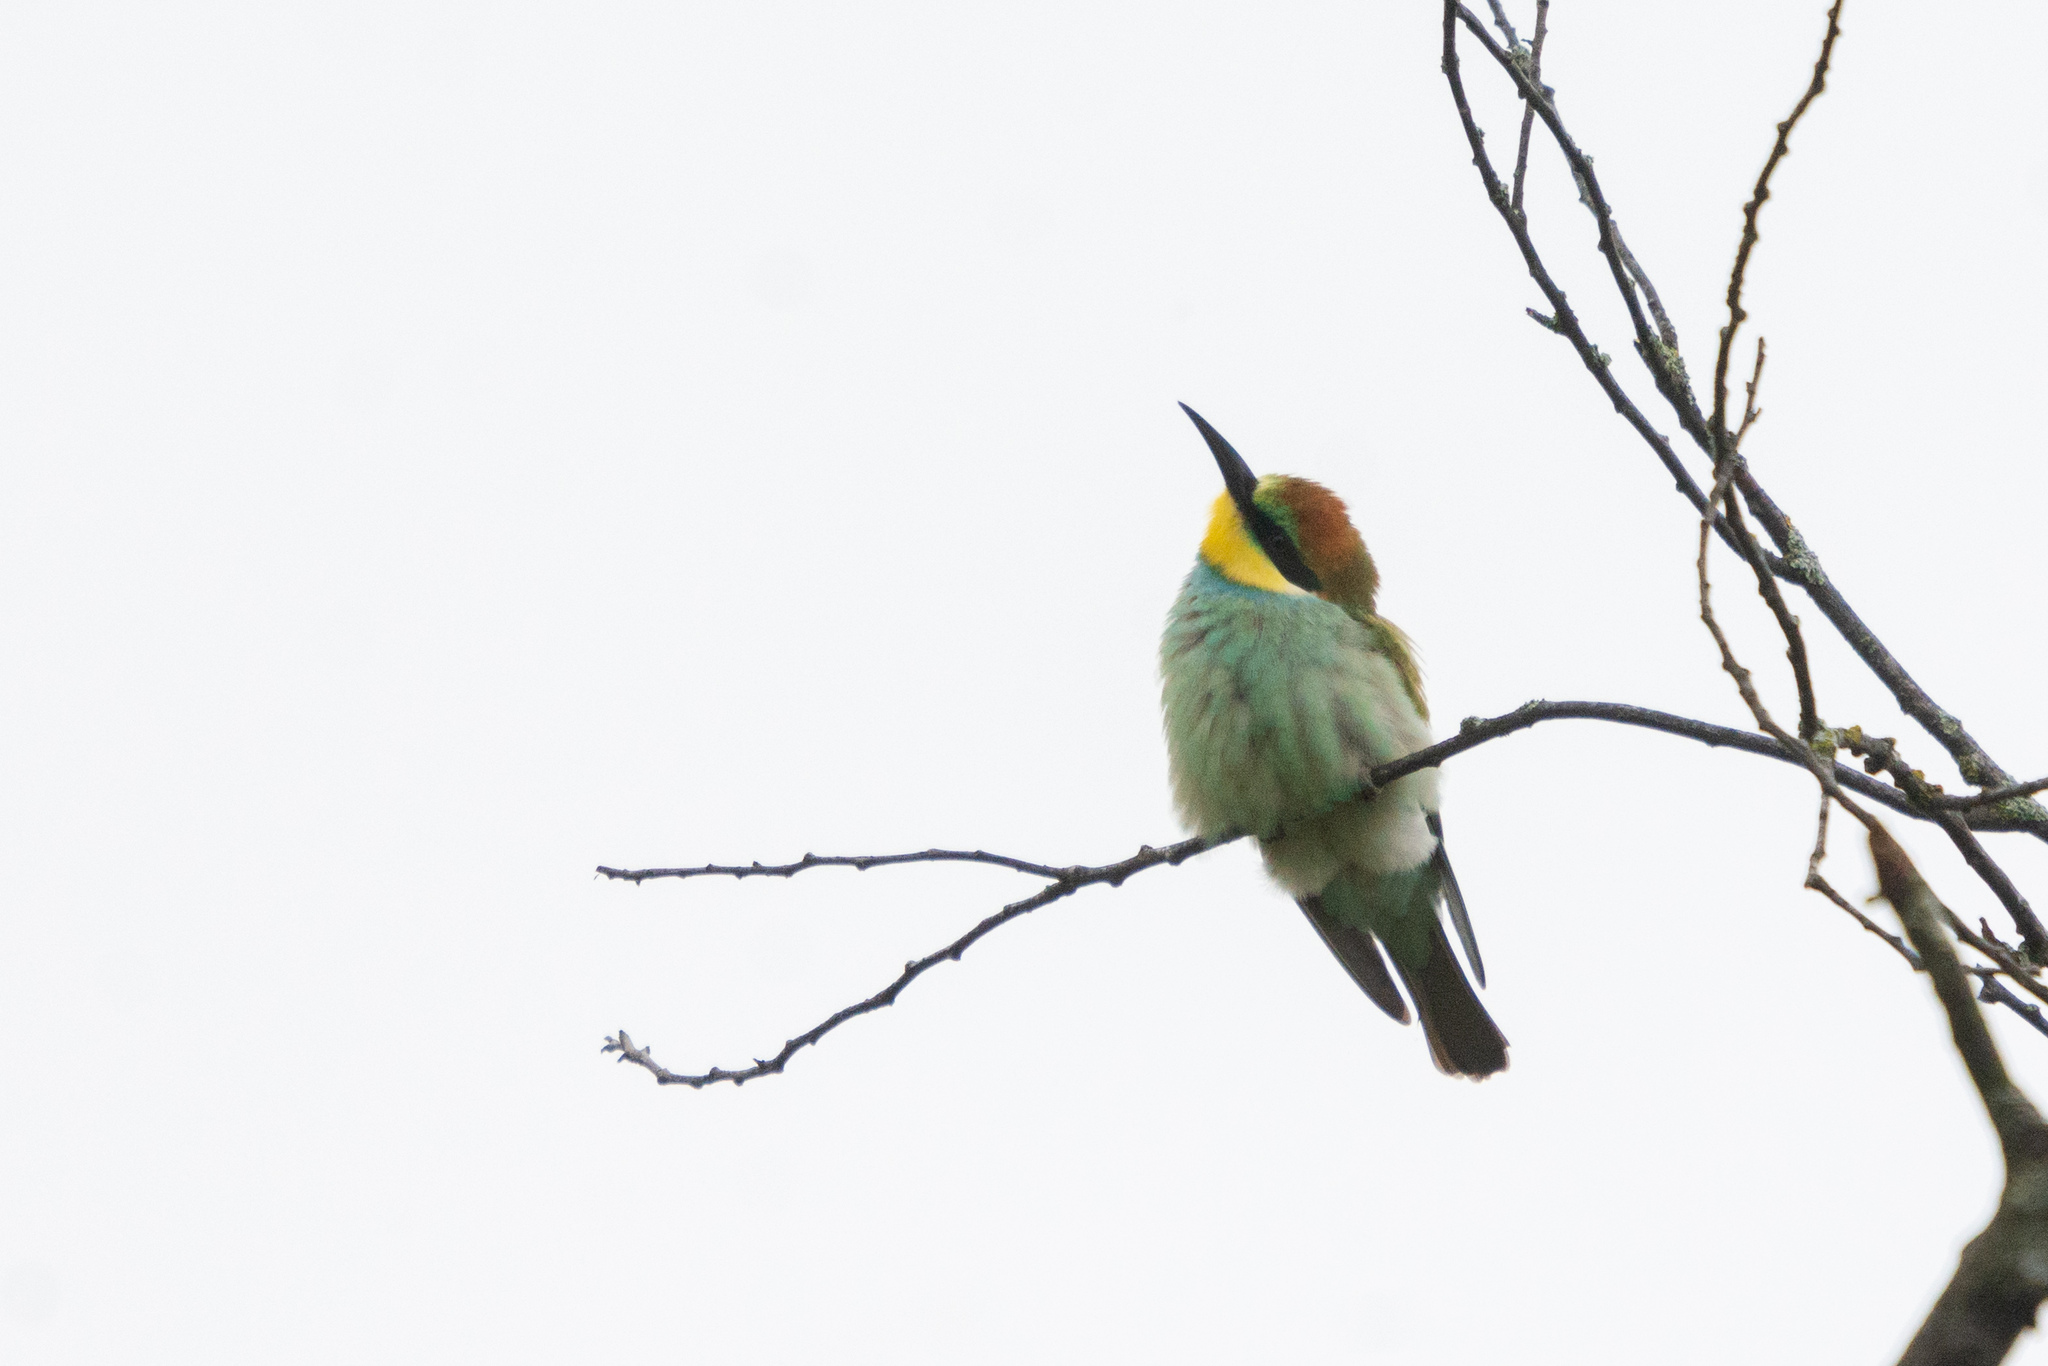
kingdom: Animalia
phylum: Chordata
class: Aves
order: Coraciiformes
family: Meropidae
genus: Merops
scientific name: Merops apiaster
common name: European bee-eater
